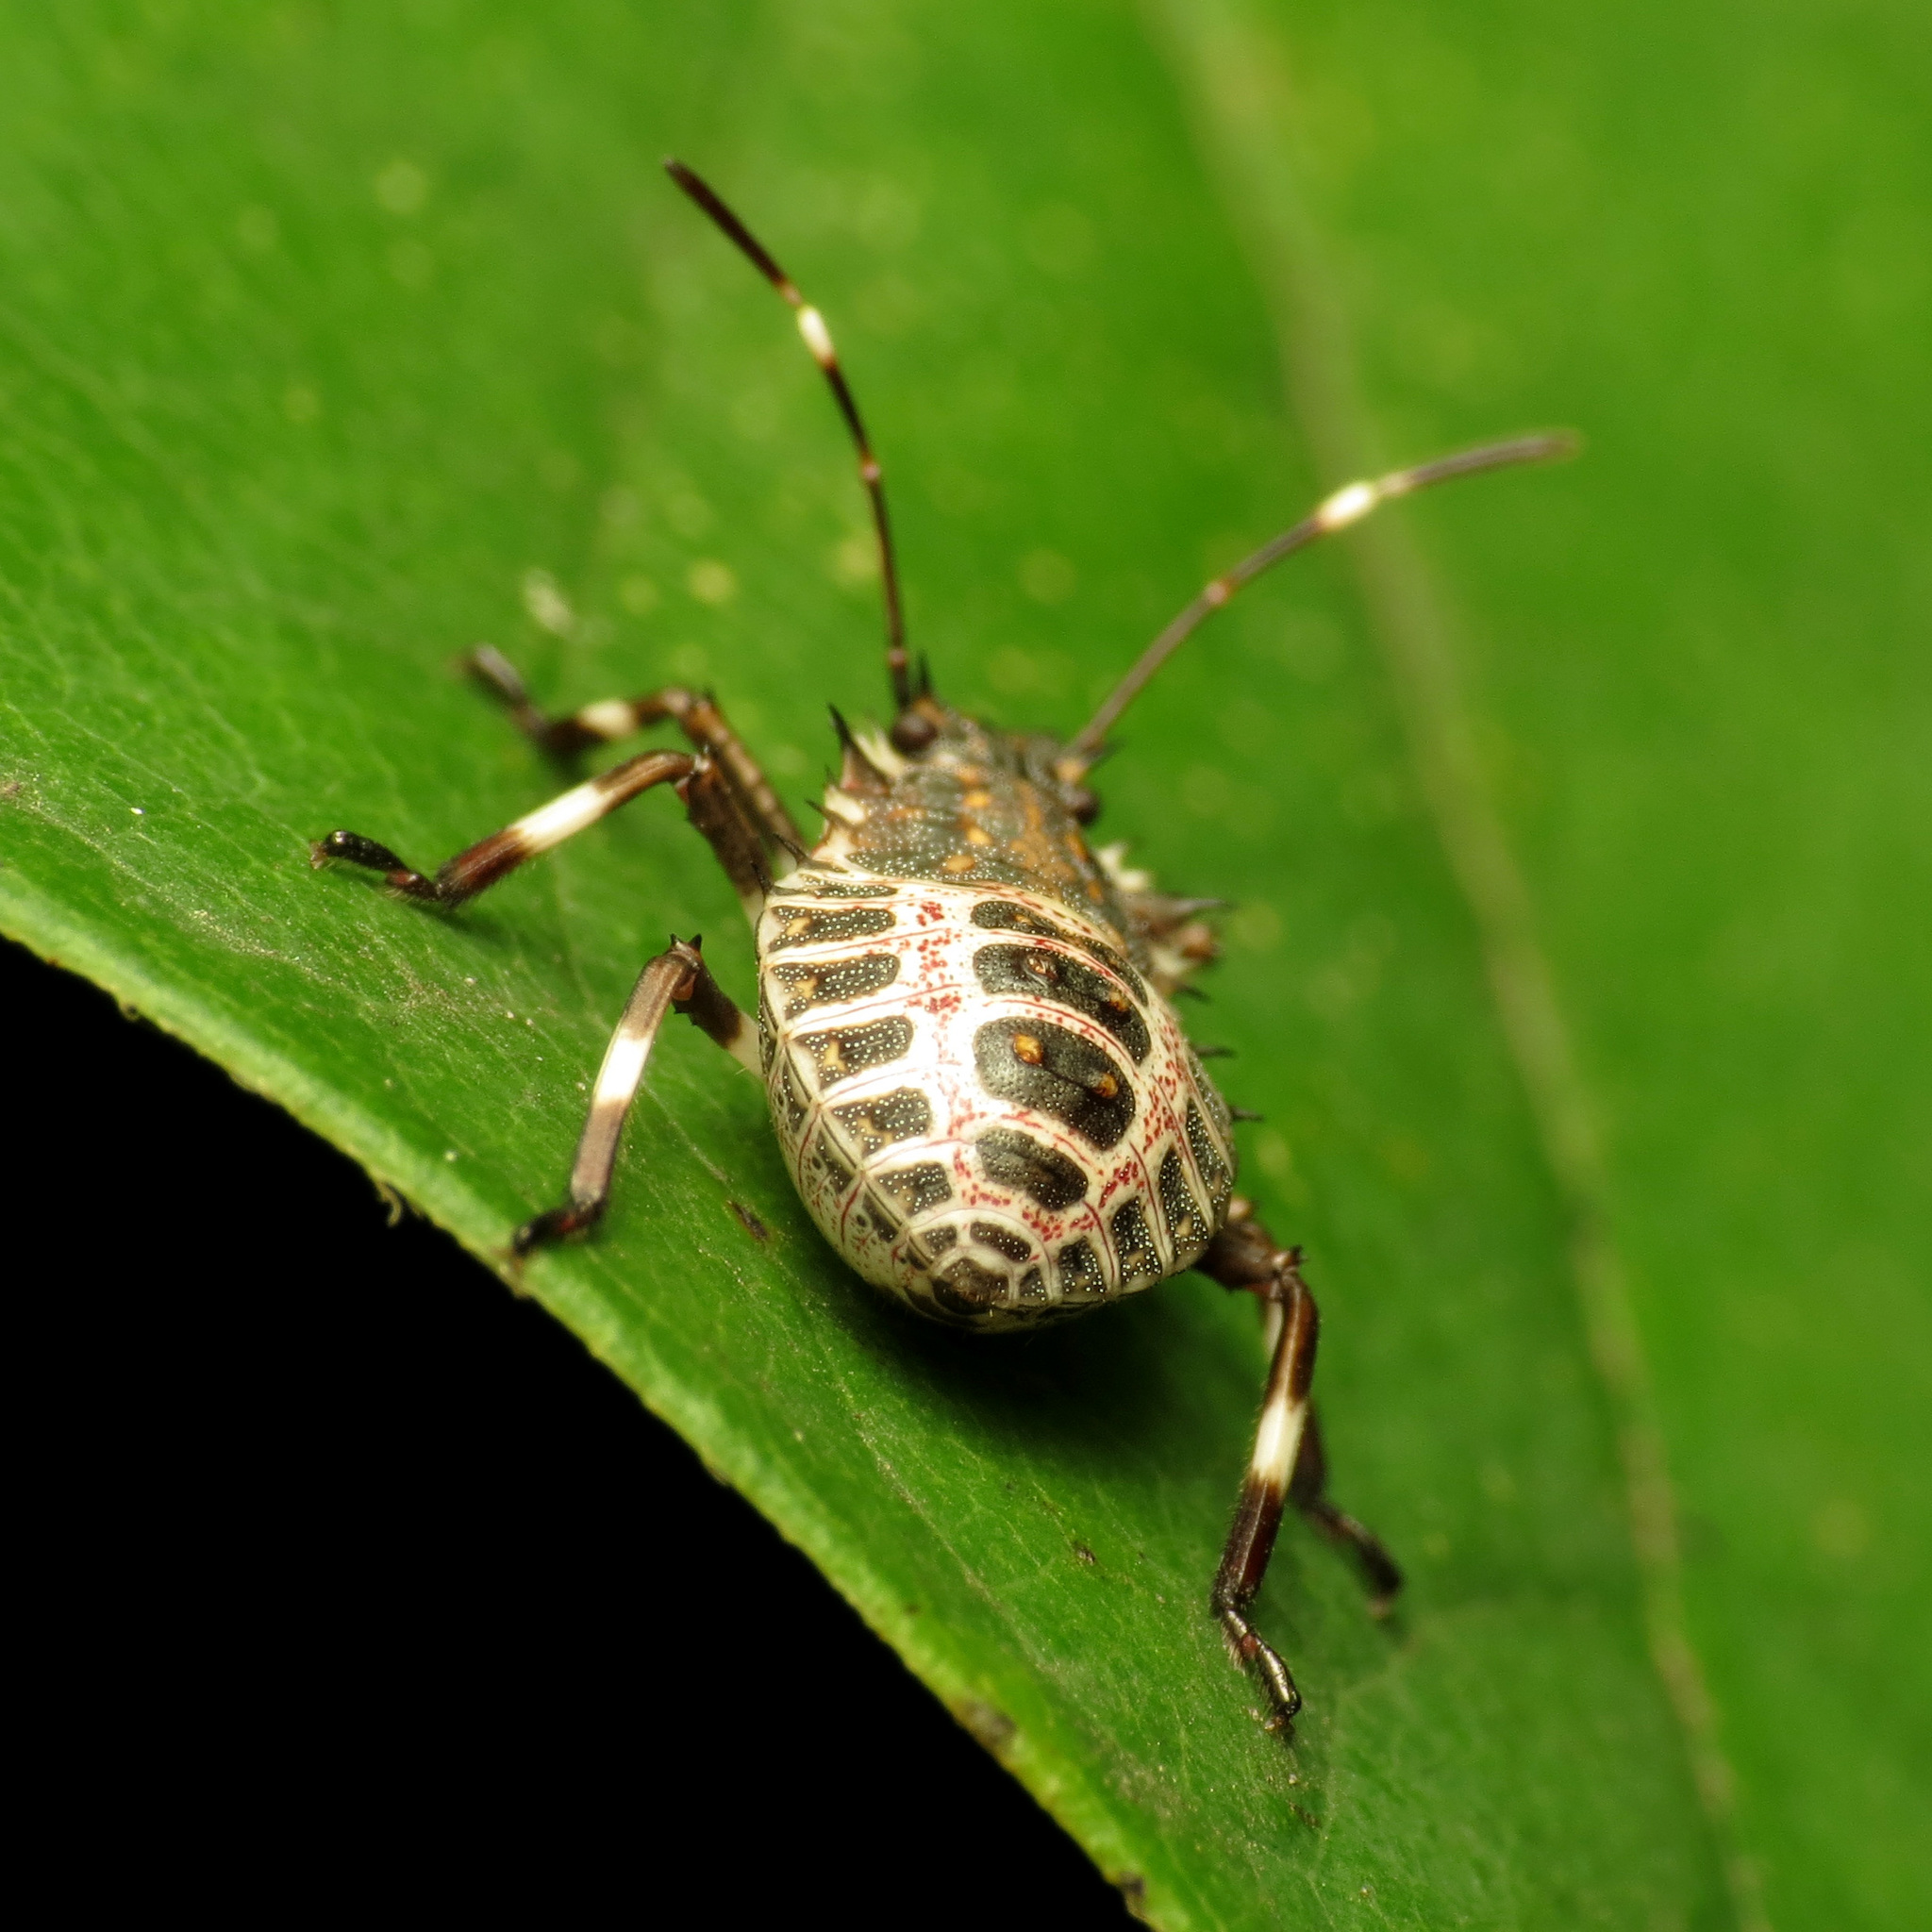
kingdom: Animalia
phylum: Arthropoda
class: Insecta
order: Hemiptera
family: Pentatomidae
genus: Halyomorpha
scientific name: Halyomorpha halys
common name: Brown marmorated stink bug
